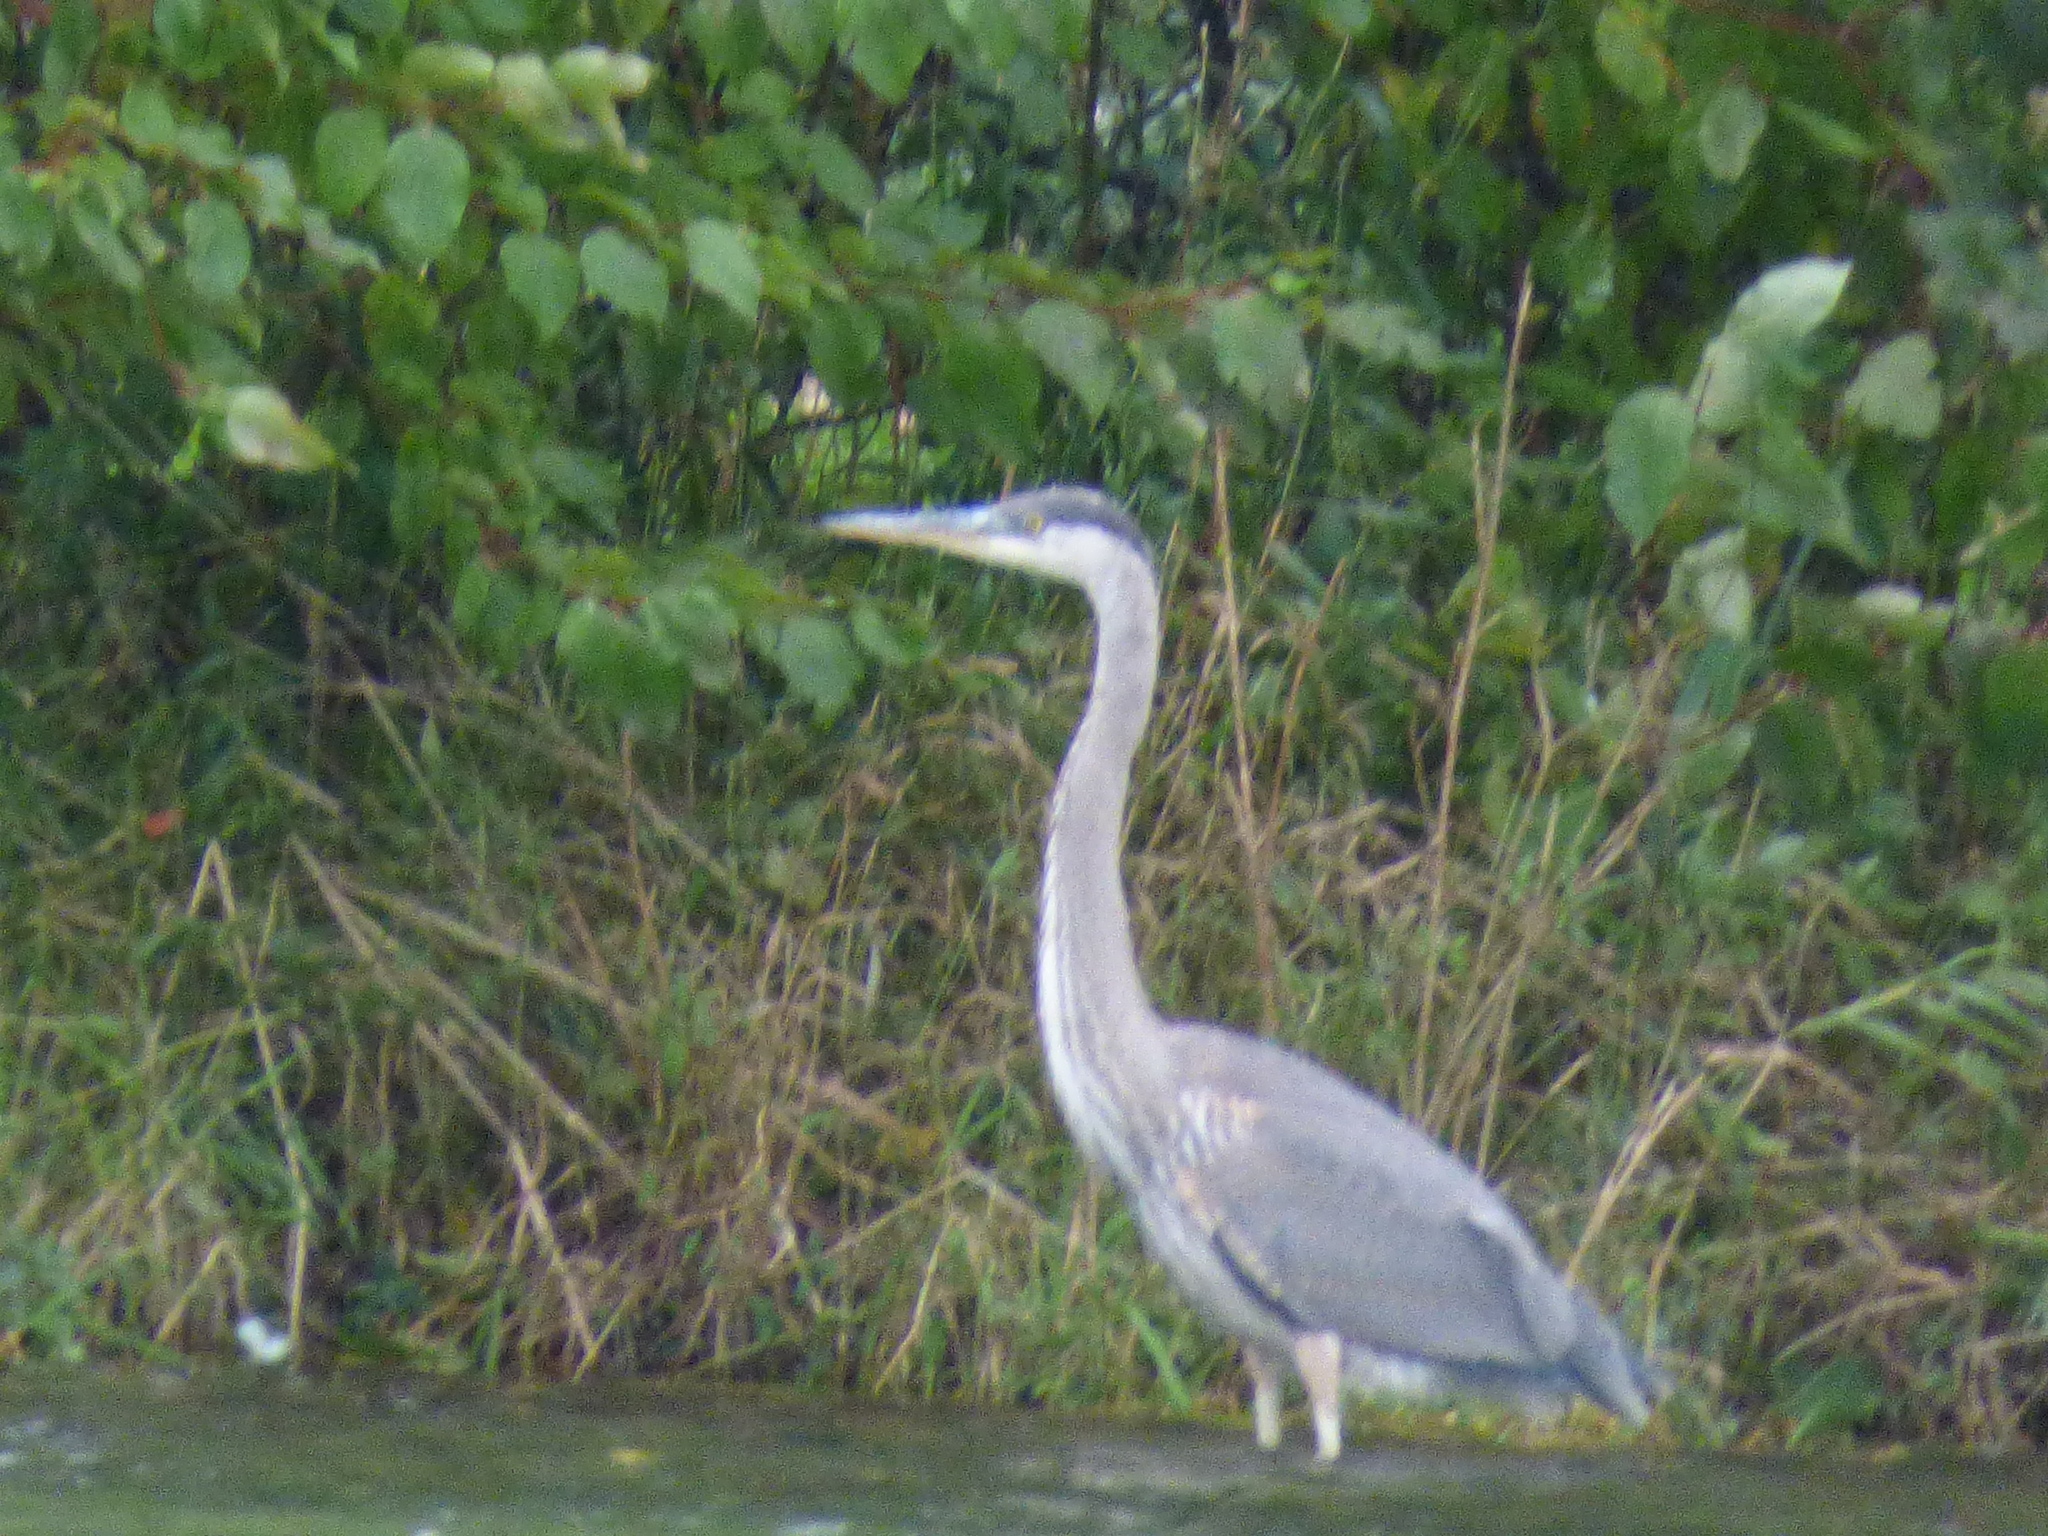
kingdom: Animalia
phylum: Chordata
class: Aves
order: Pelecaniformes
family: Ardeidae
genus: Ardea
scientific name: Ardea herodias
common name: Great blue heron
